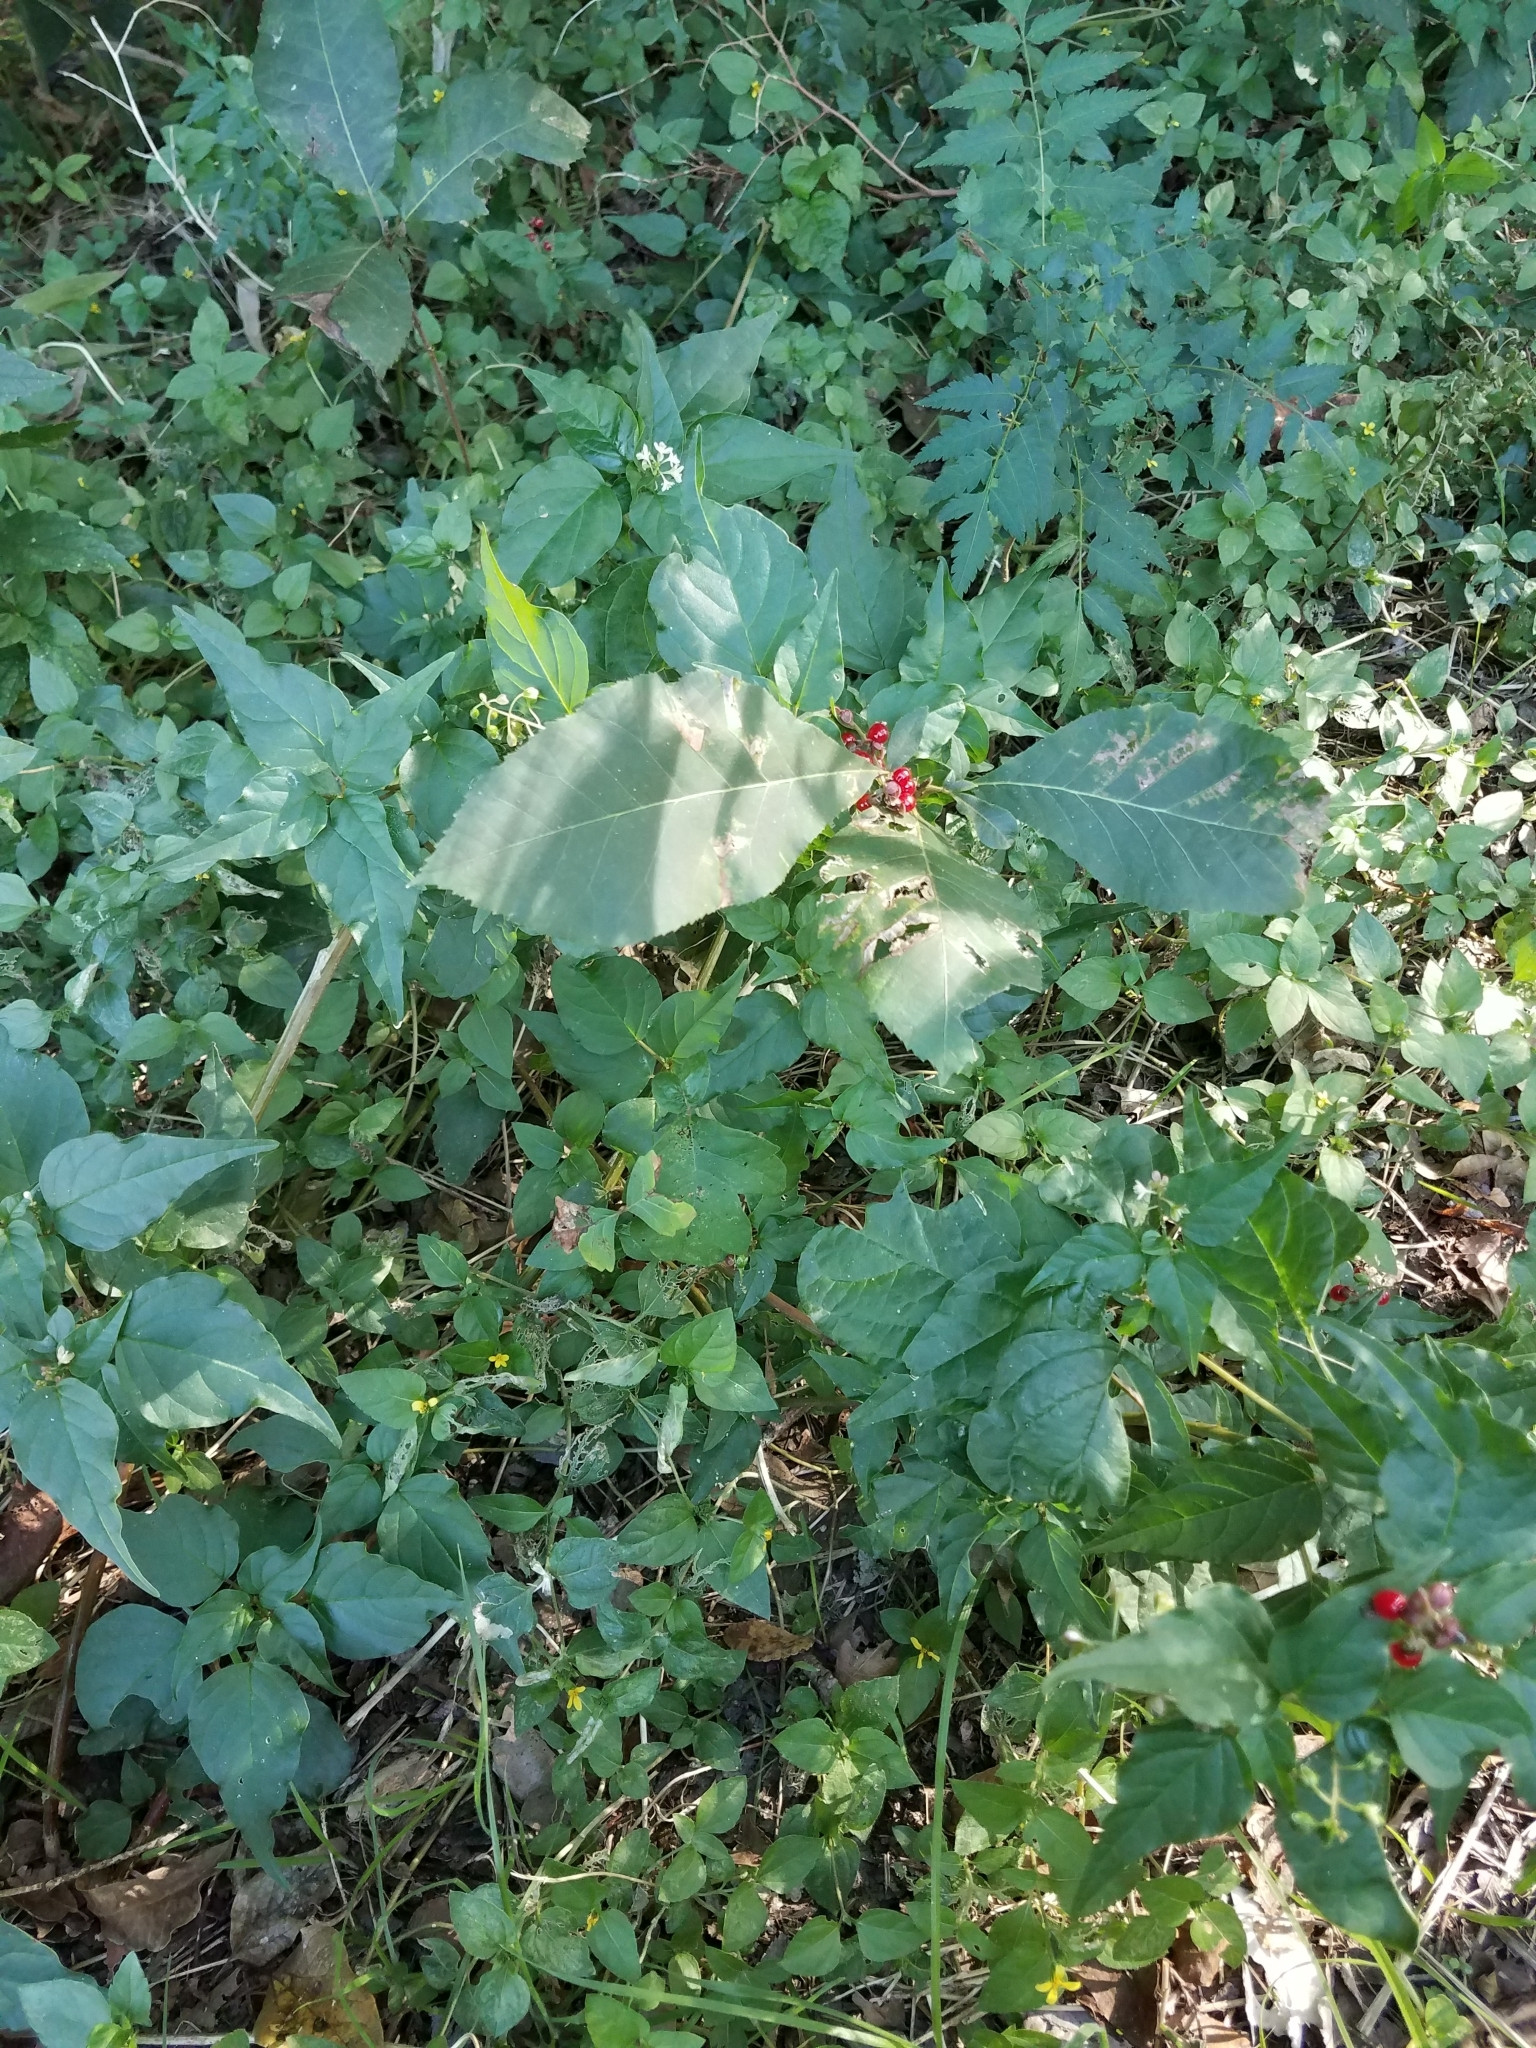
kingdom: Plantae
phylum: Tracheophyta
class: Magnoliopsida
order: Caryophyllales
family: Phytolaccaceae
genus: Rivina
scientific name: Rivina humilis
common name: Rougeplant
